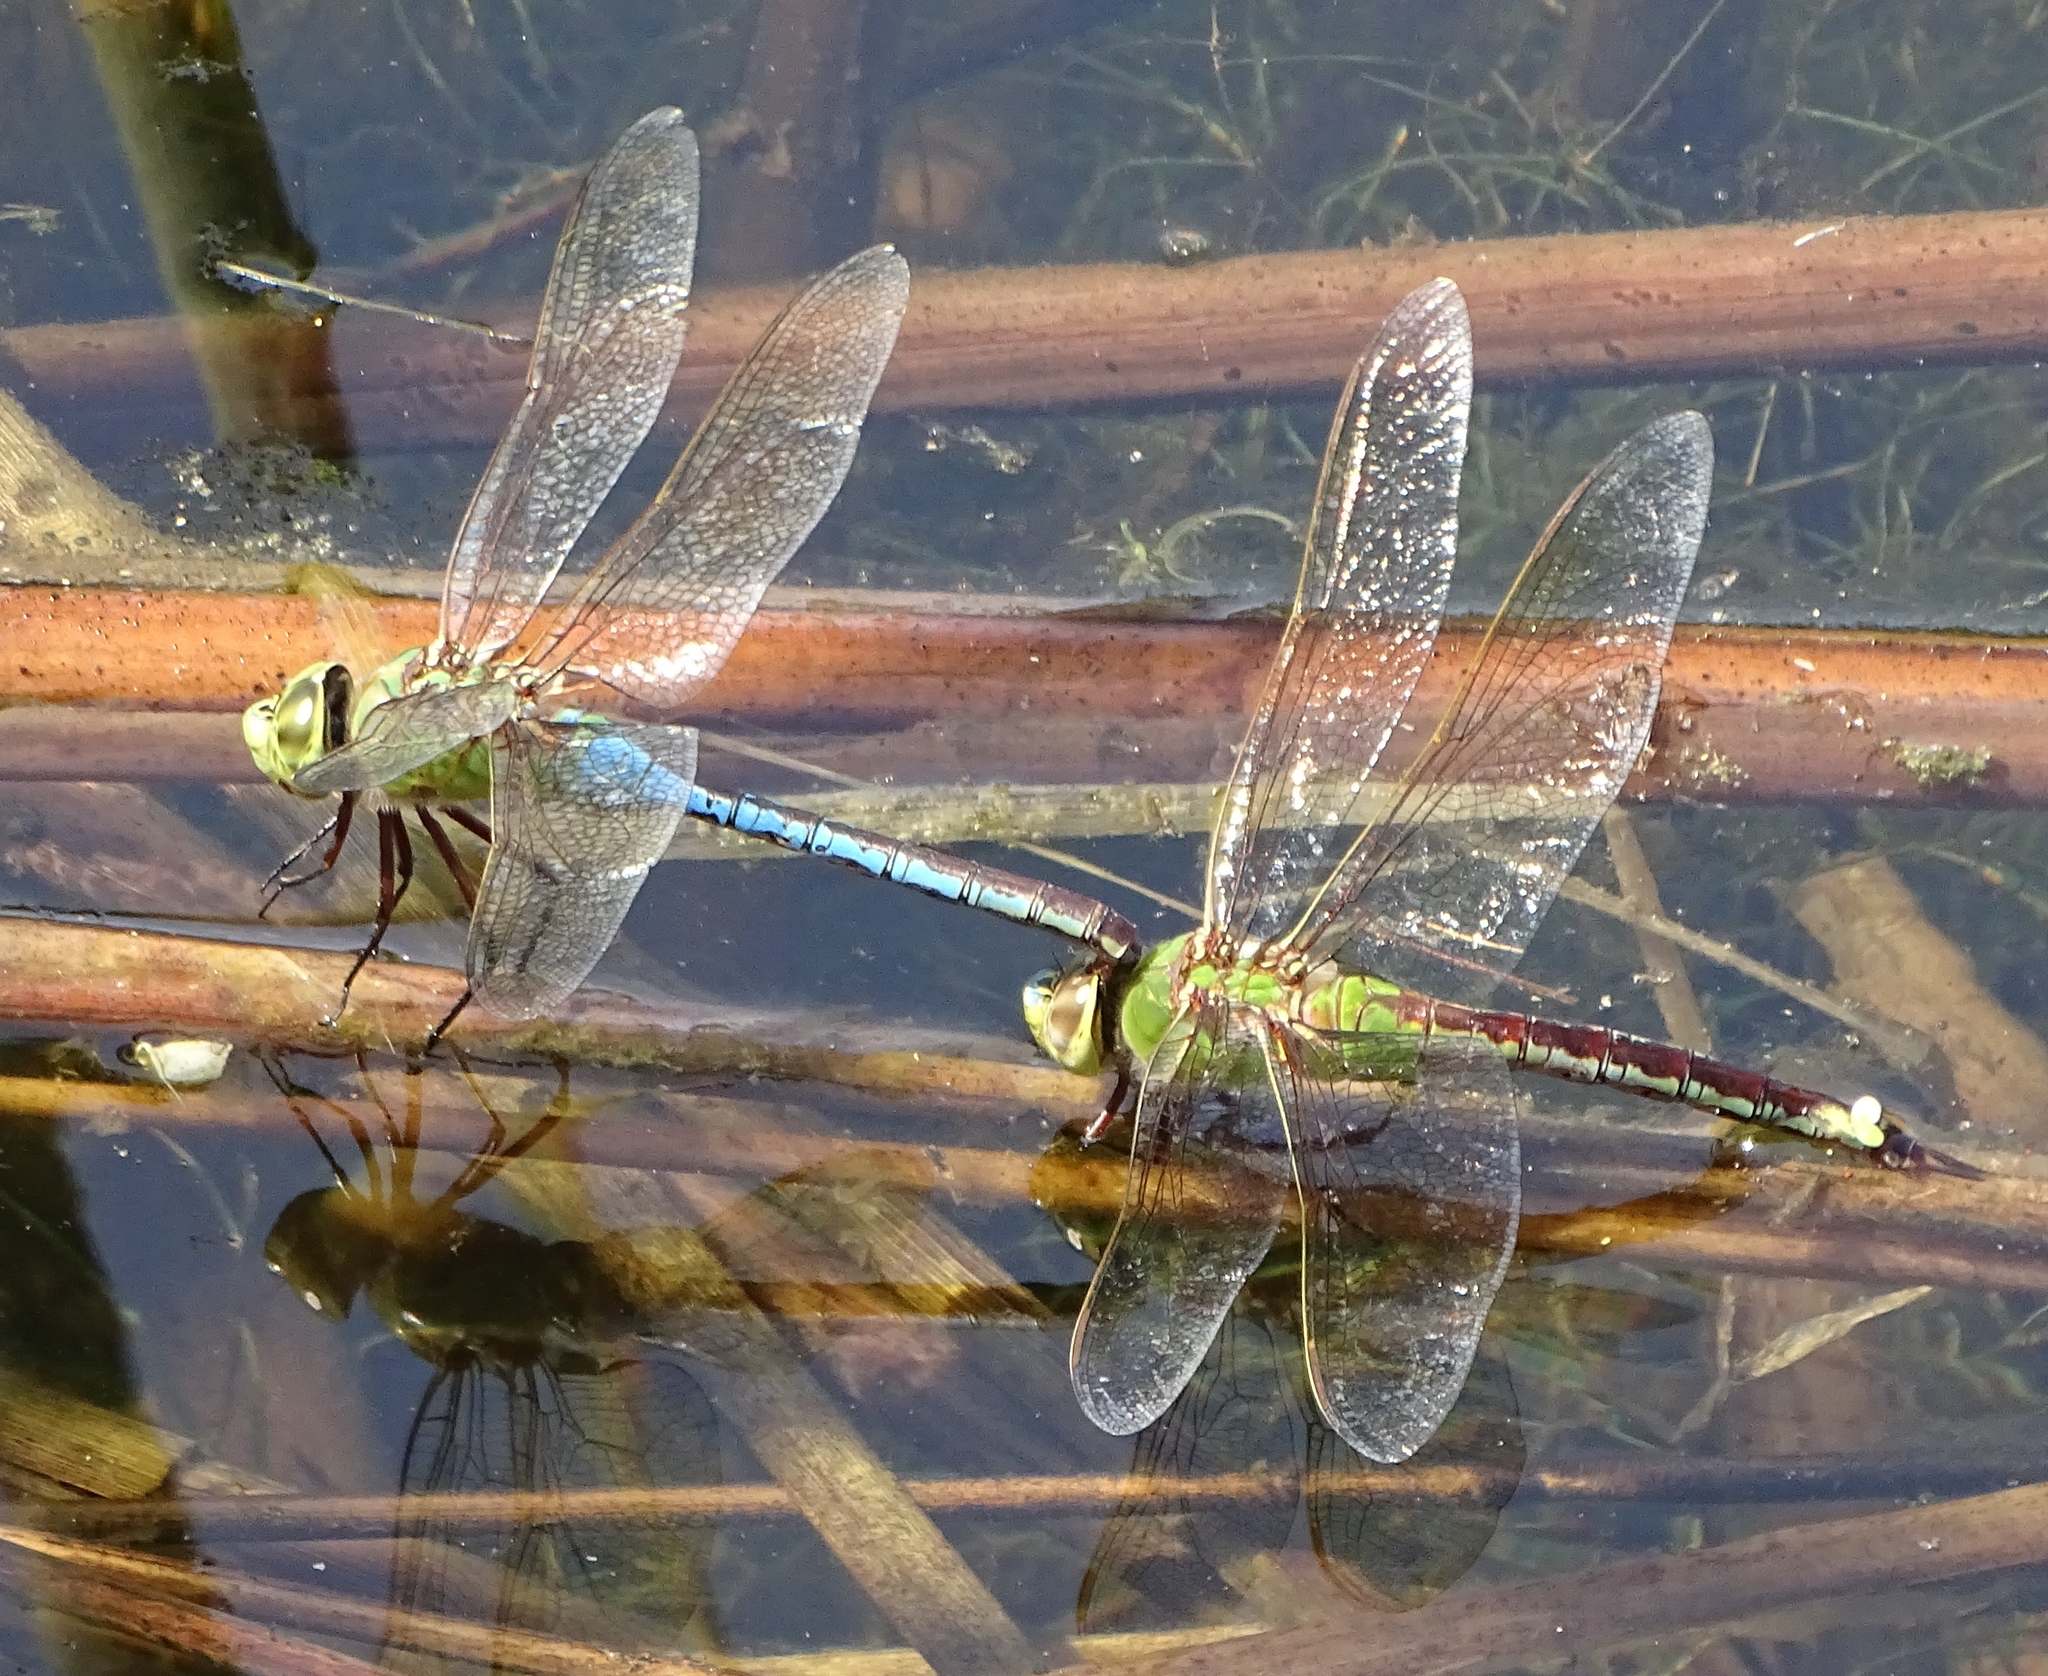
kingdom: Animalia
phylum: Arthropoda
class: Insecta
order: Odonata
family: Aeshnidae
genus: Anax
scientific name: Anax junius
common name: Common green darner
